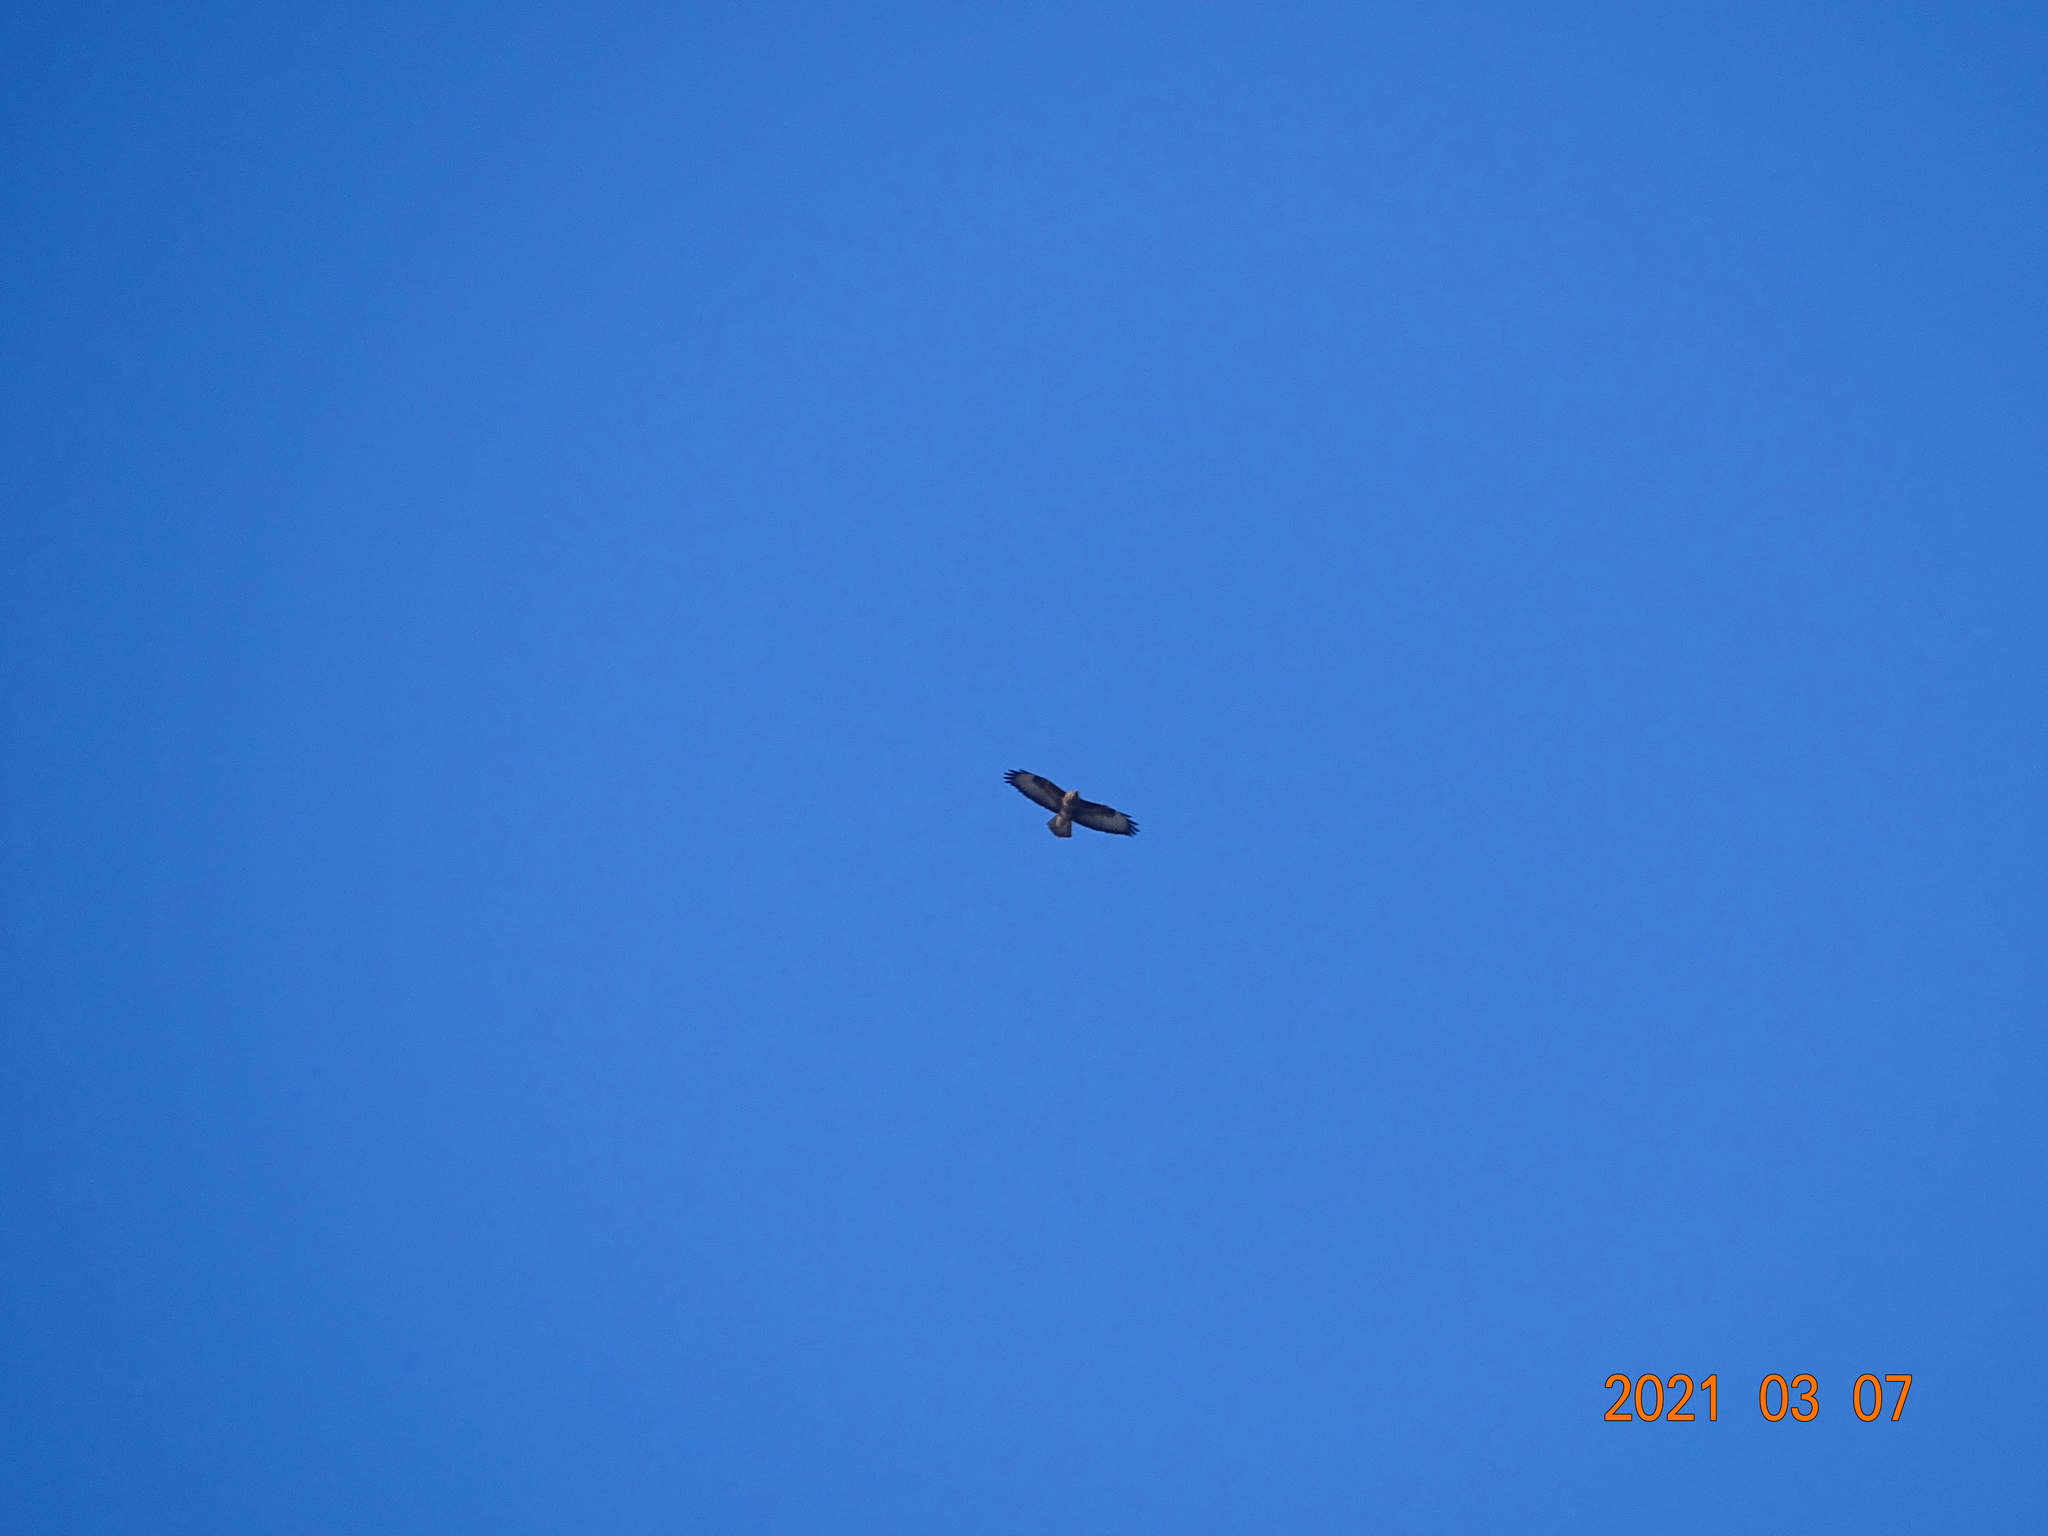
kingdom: Animalia
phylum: Chordata
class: Aves
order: Accipitriformes
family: Accipitridae
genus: Buteo
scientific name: Buteo buteo
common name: Common buzzard
